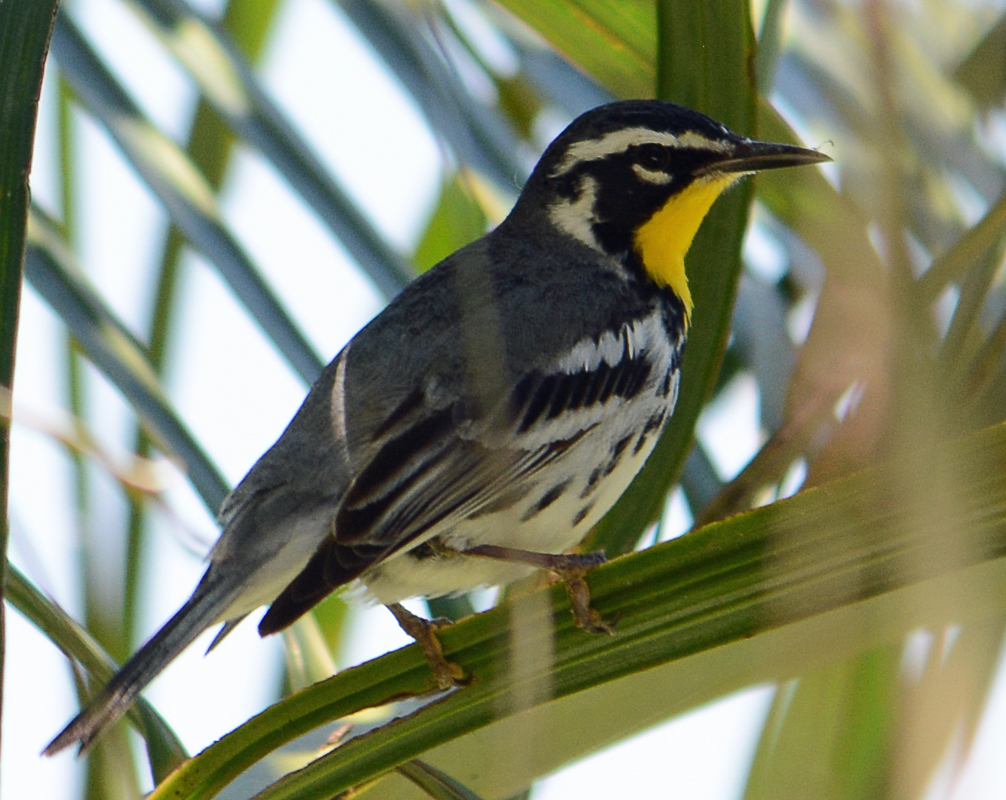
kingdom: Animalia
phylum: Chordata
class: Aves
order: Passeriformes
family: Parulidae
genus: Setophaga
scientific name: Setophaga dominica
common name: Yellow-throated warbler
